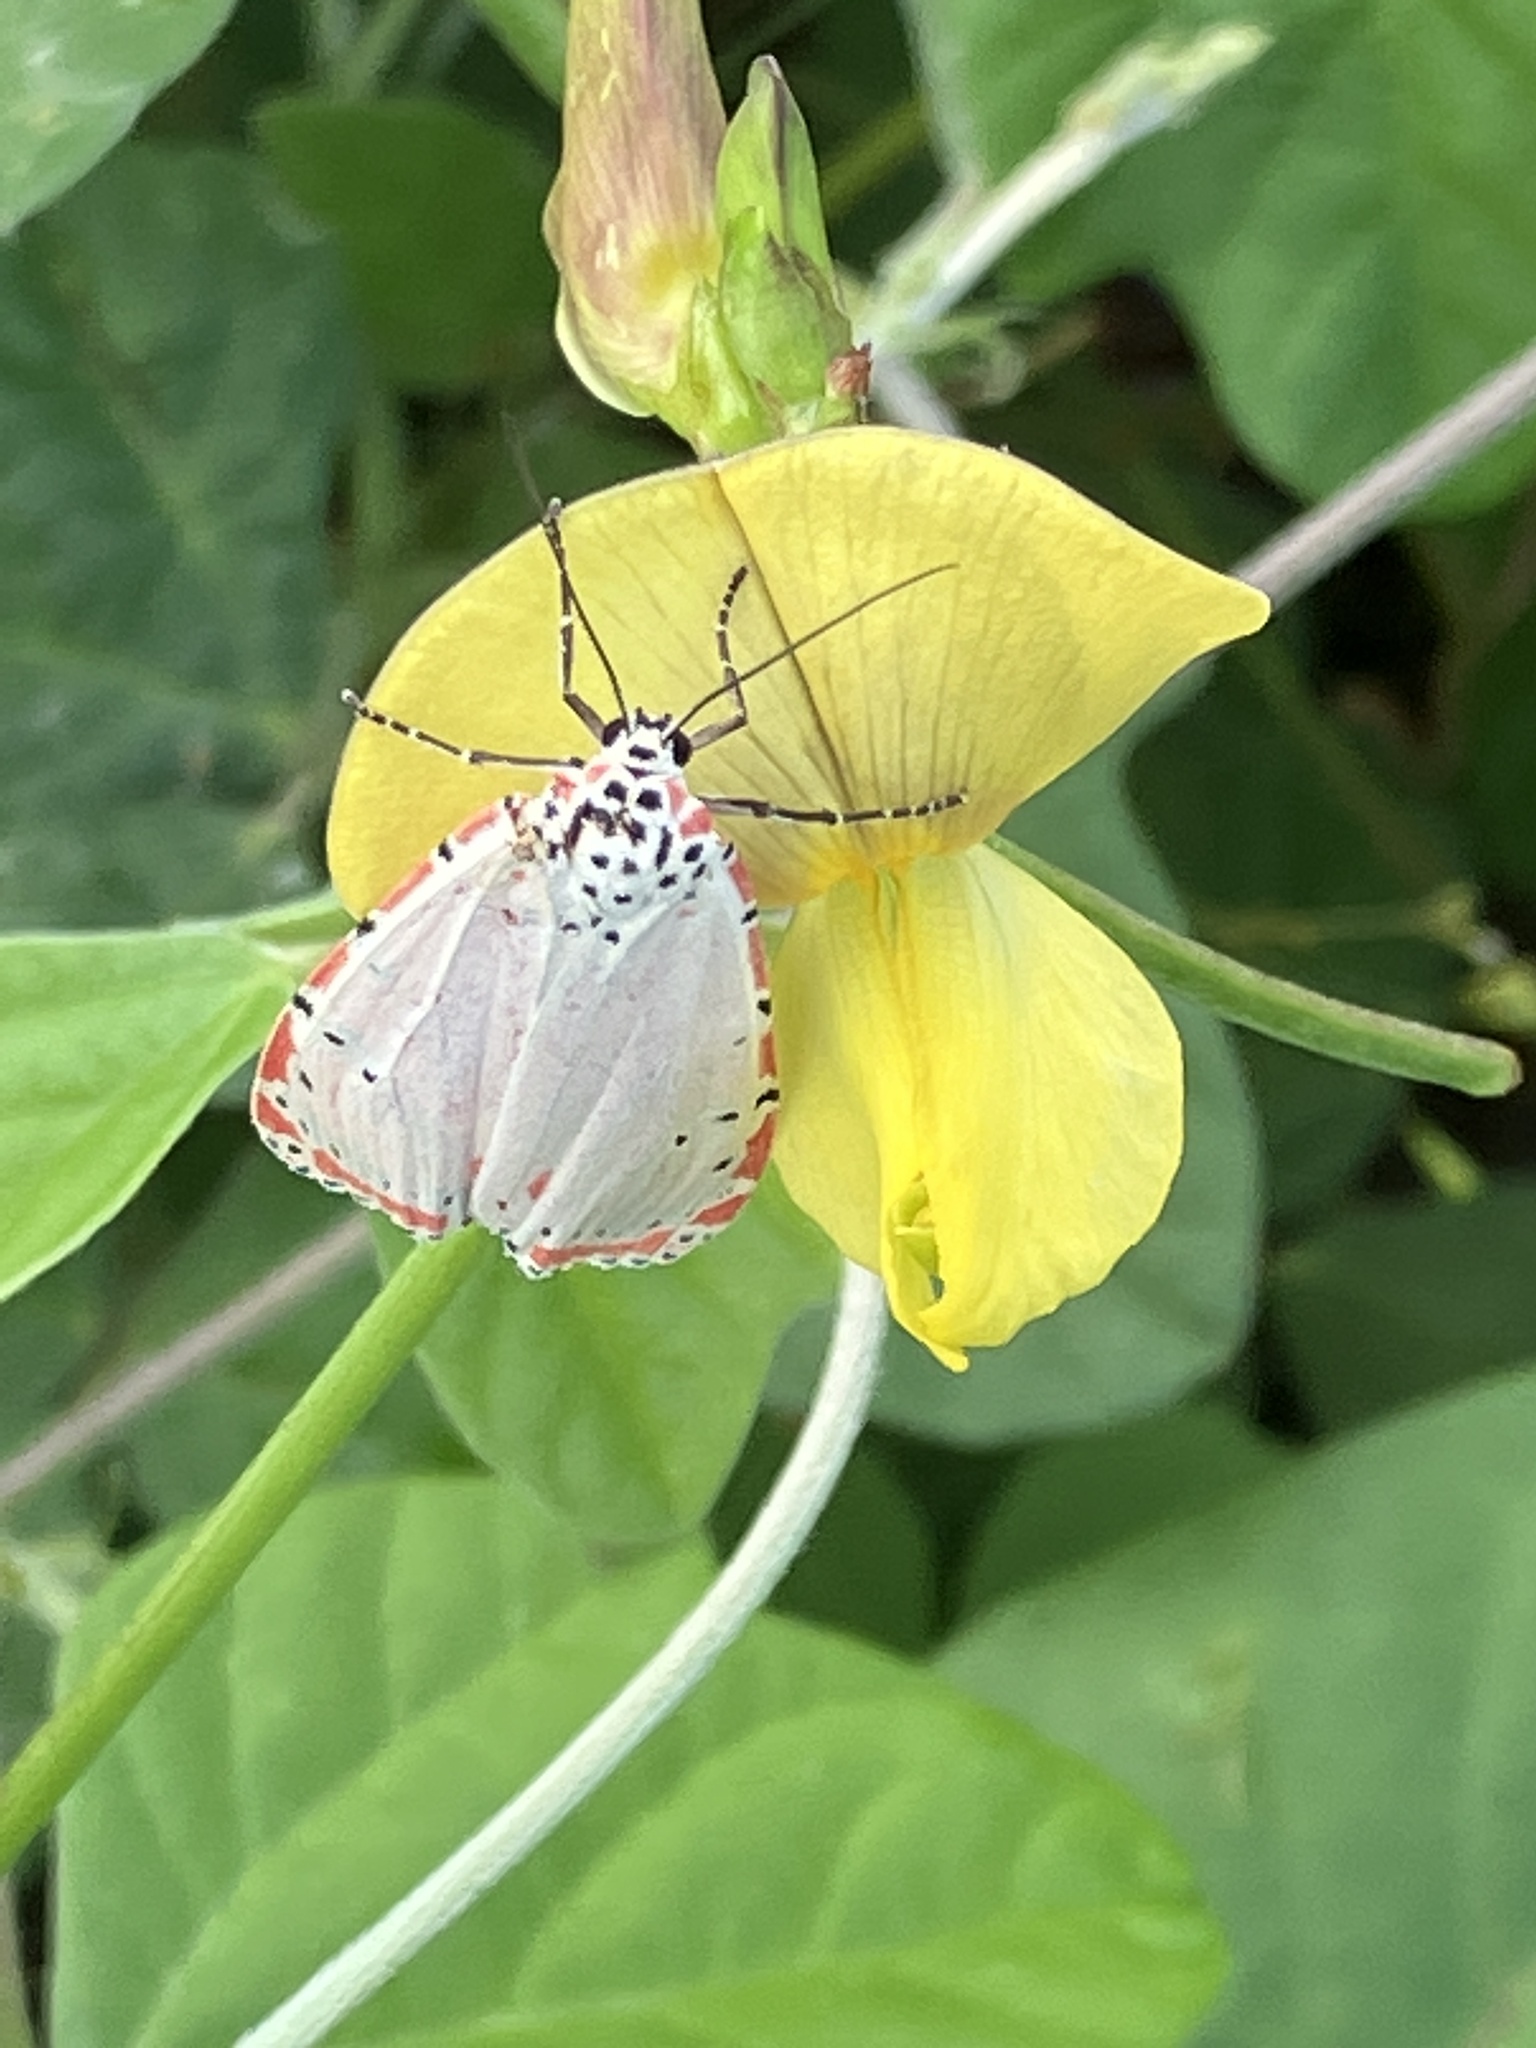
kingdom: Animalia
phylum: Arthropoda
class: Insecta
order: Lepidoptera
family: Erebidae
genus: Utetheisa
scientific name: Utetheisa ornatrix
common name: Beautiful utetheisa
